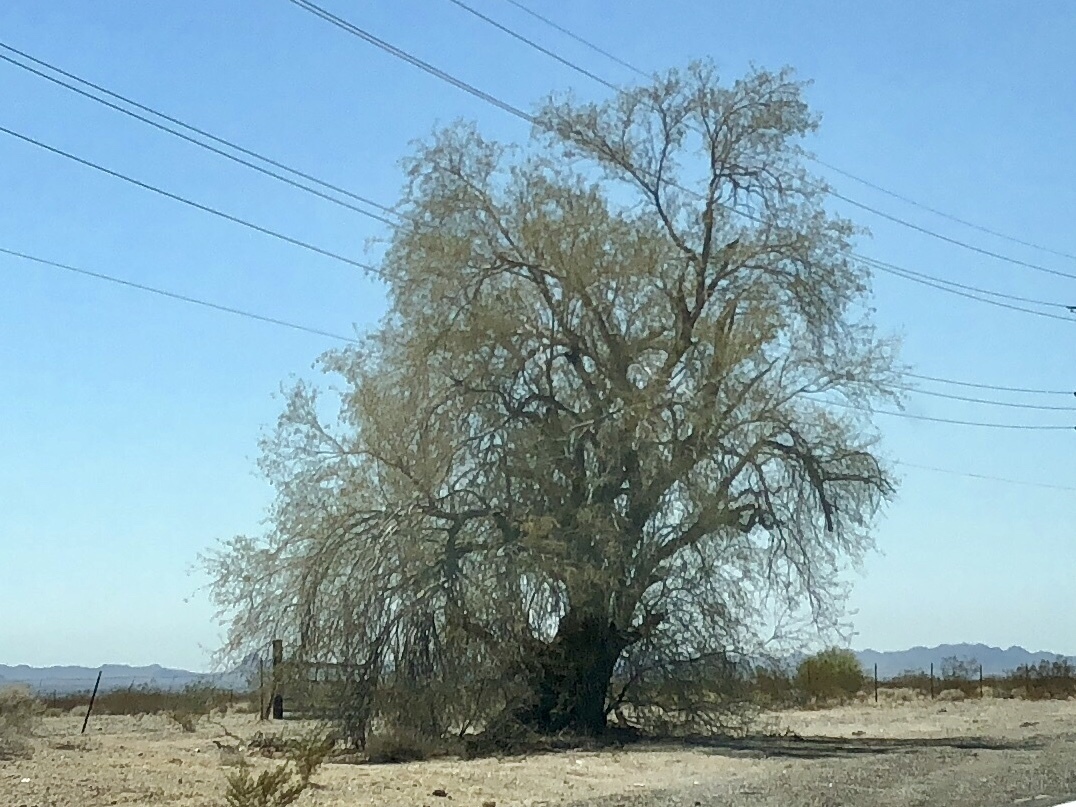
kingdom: Plantae
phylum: Tracheophyta
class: Magnoliopsida
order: Fabales
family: Fabaceae
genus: Parkinsonia
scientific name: Parkinsonia florida
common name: Blue paloverde
